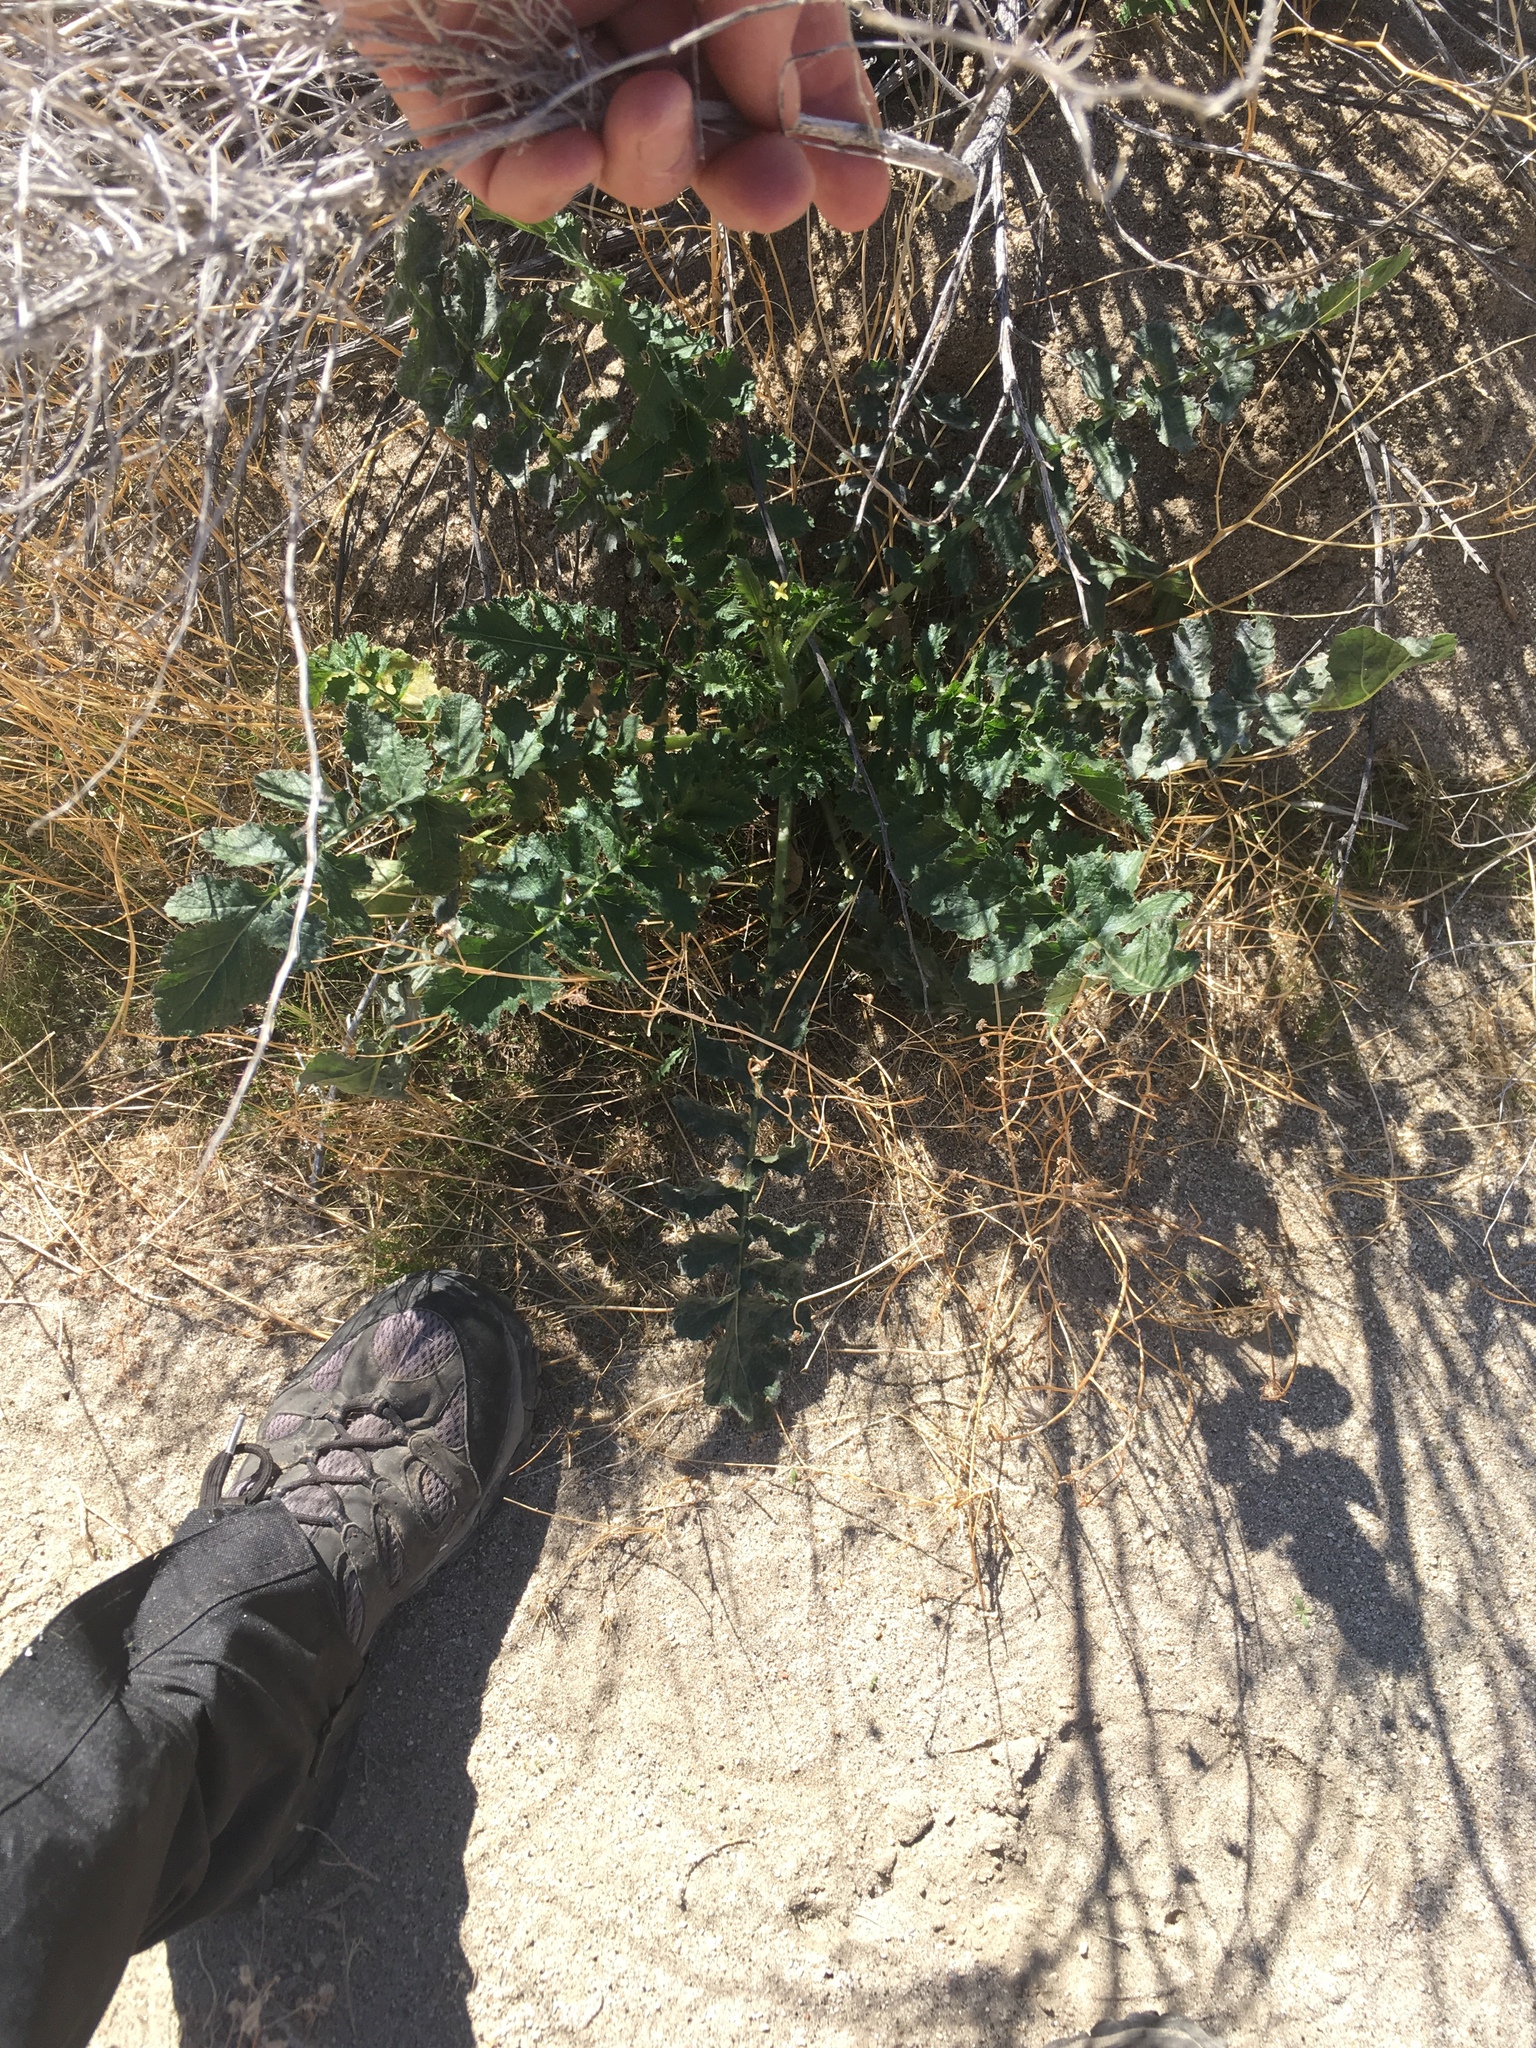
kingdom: Plantae
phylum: Tracheophyta
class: Magnoliopsida
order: Brassicales
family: Brassicaceae
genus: Brassica
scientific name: Brassica tournefortii
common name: Pale cabbage
